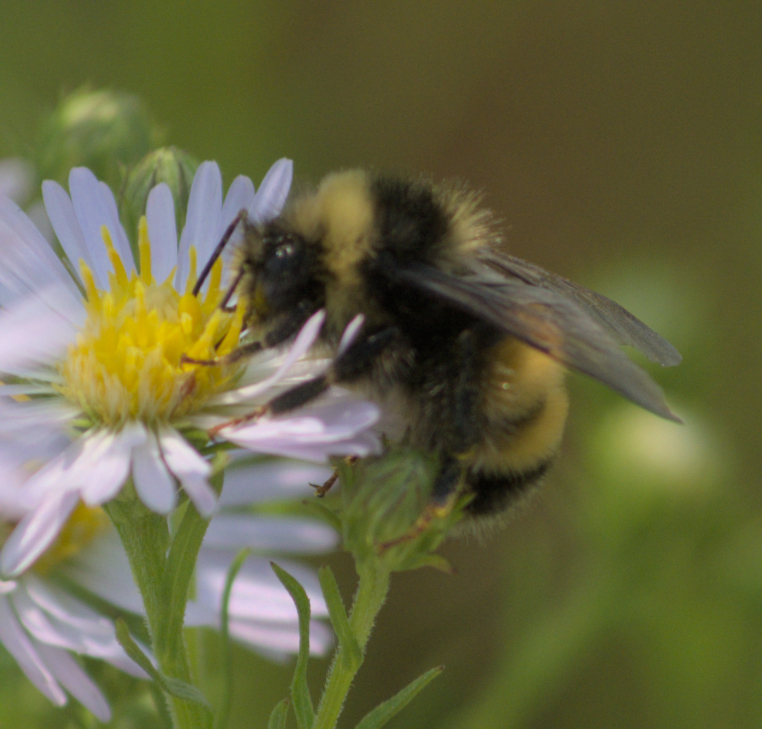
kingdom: Animalia
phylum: Arthropoda
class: Insecta
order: Hymenoptera
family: Apidae
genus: Bombus
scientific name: Bombus terricola
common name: Yellow-banded bumble bee
